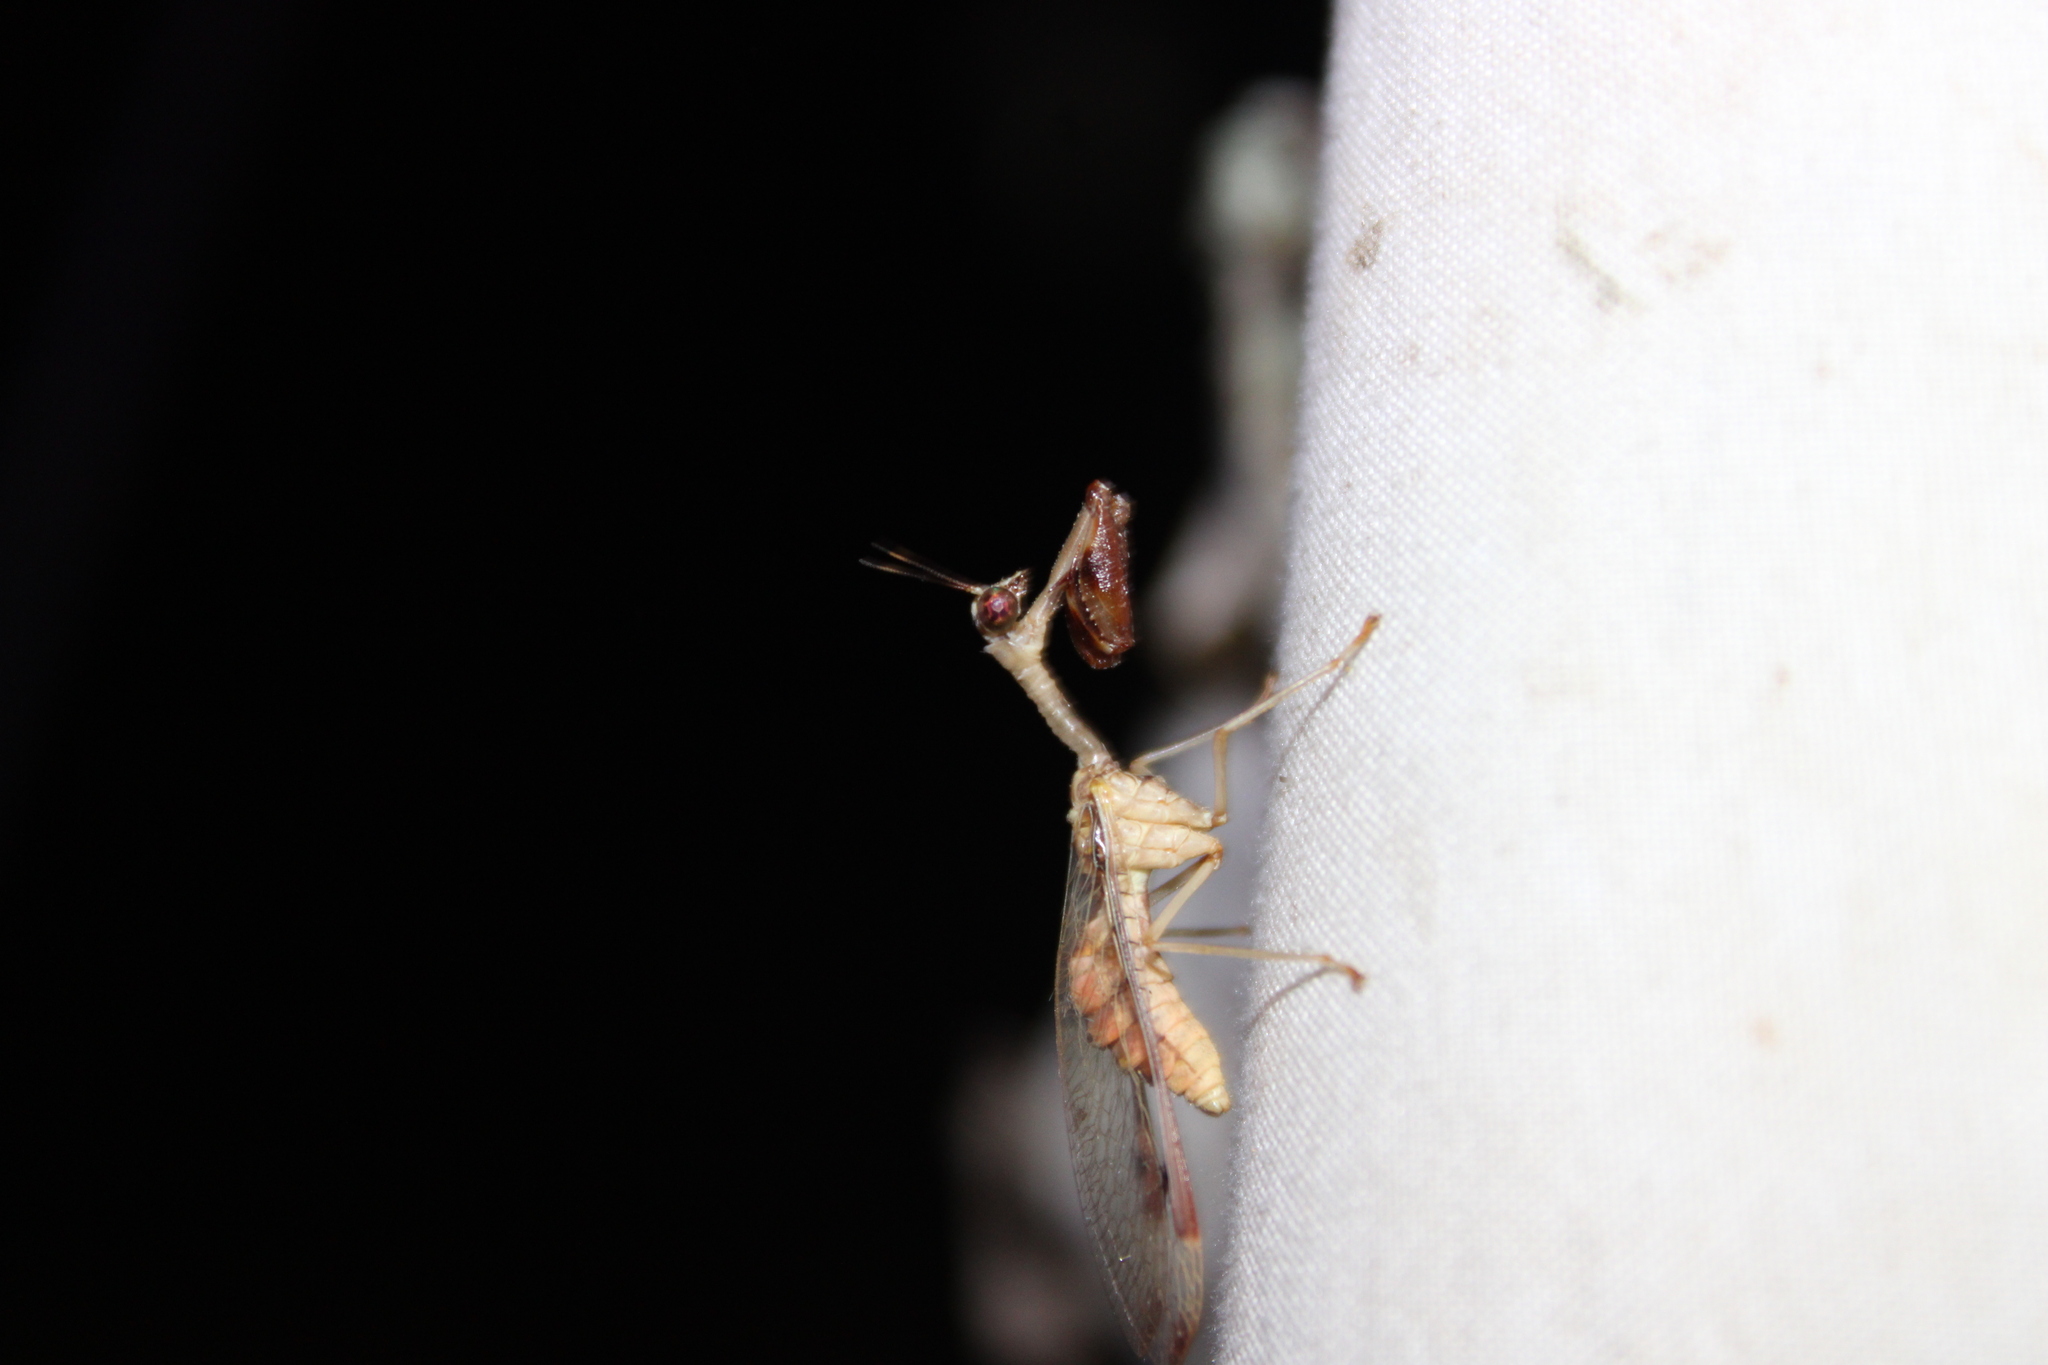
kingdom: Animalia
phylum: Arthropoda
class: Insecta
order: Neuroptera
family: Mantispidae
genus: Dicromantispa
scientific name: Dicromantispa interrupta
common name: Four-spotted mantidfly
